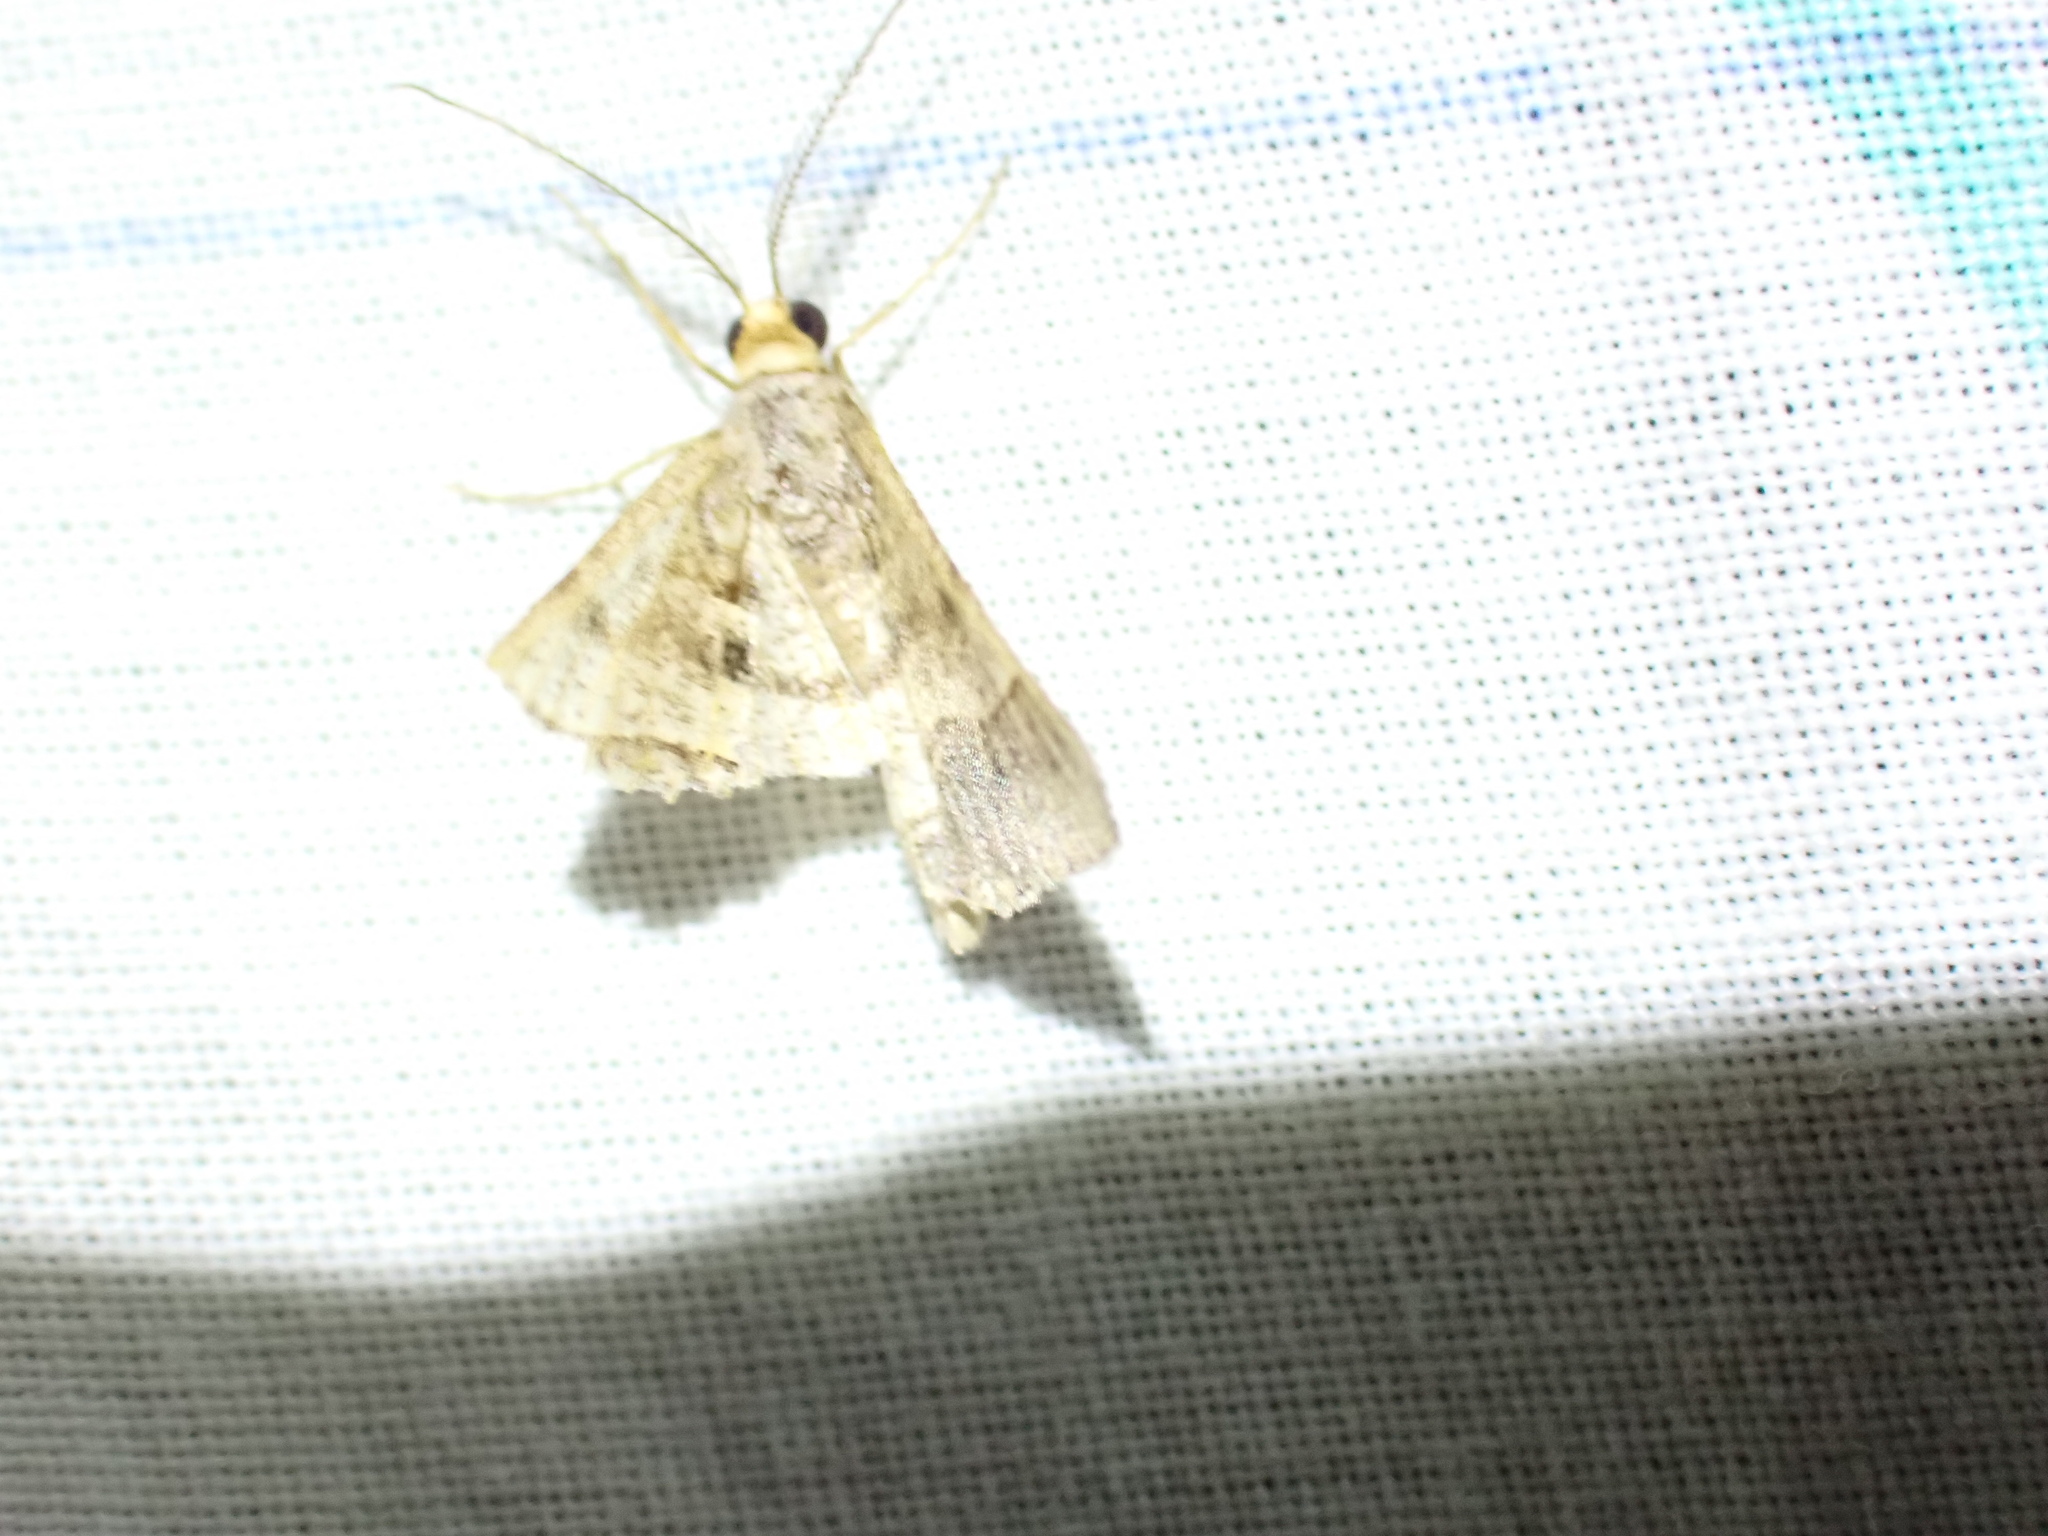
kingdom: Animalia
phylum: Arthropoda
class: Insecta
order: Lepidoptera
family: Geometridae
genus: Isturgia
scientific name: Isturgia deerraria
